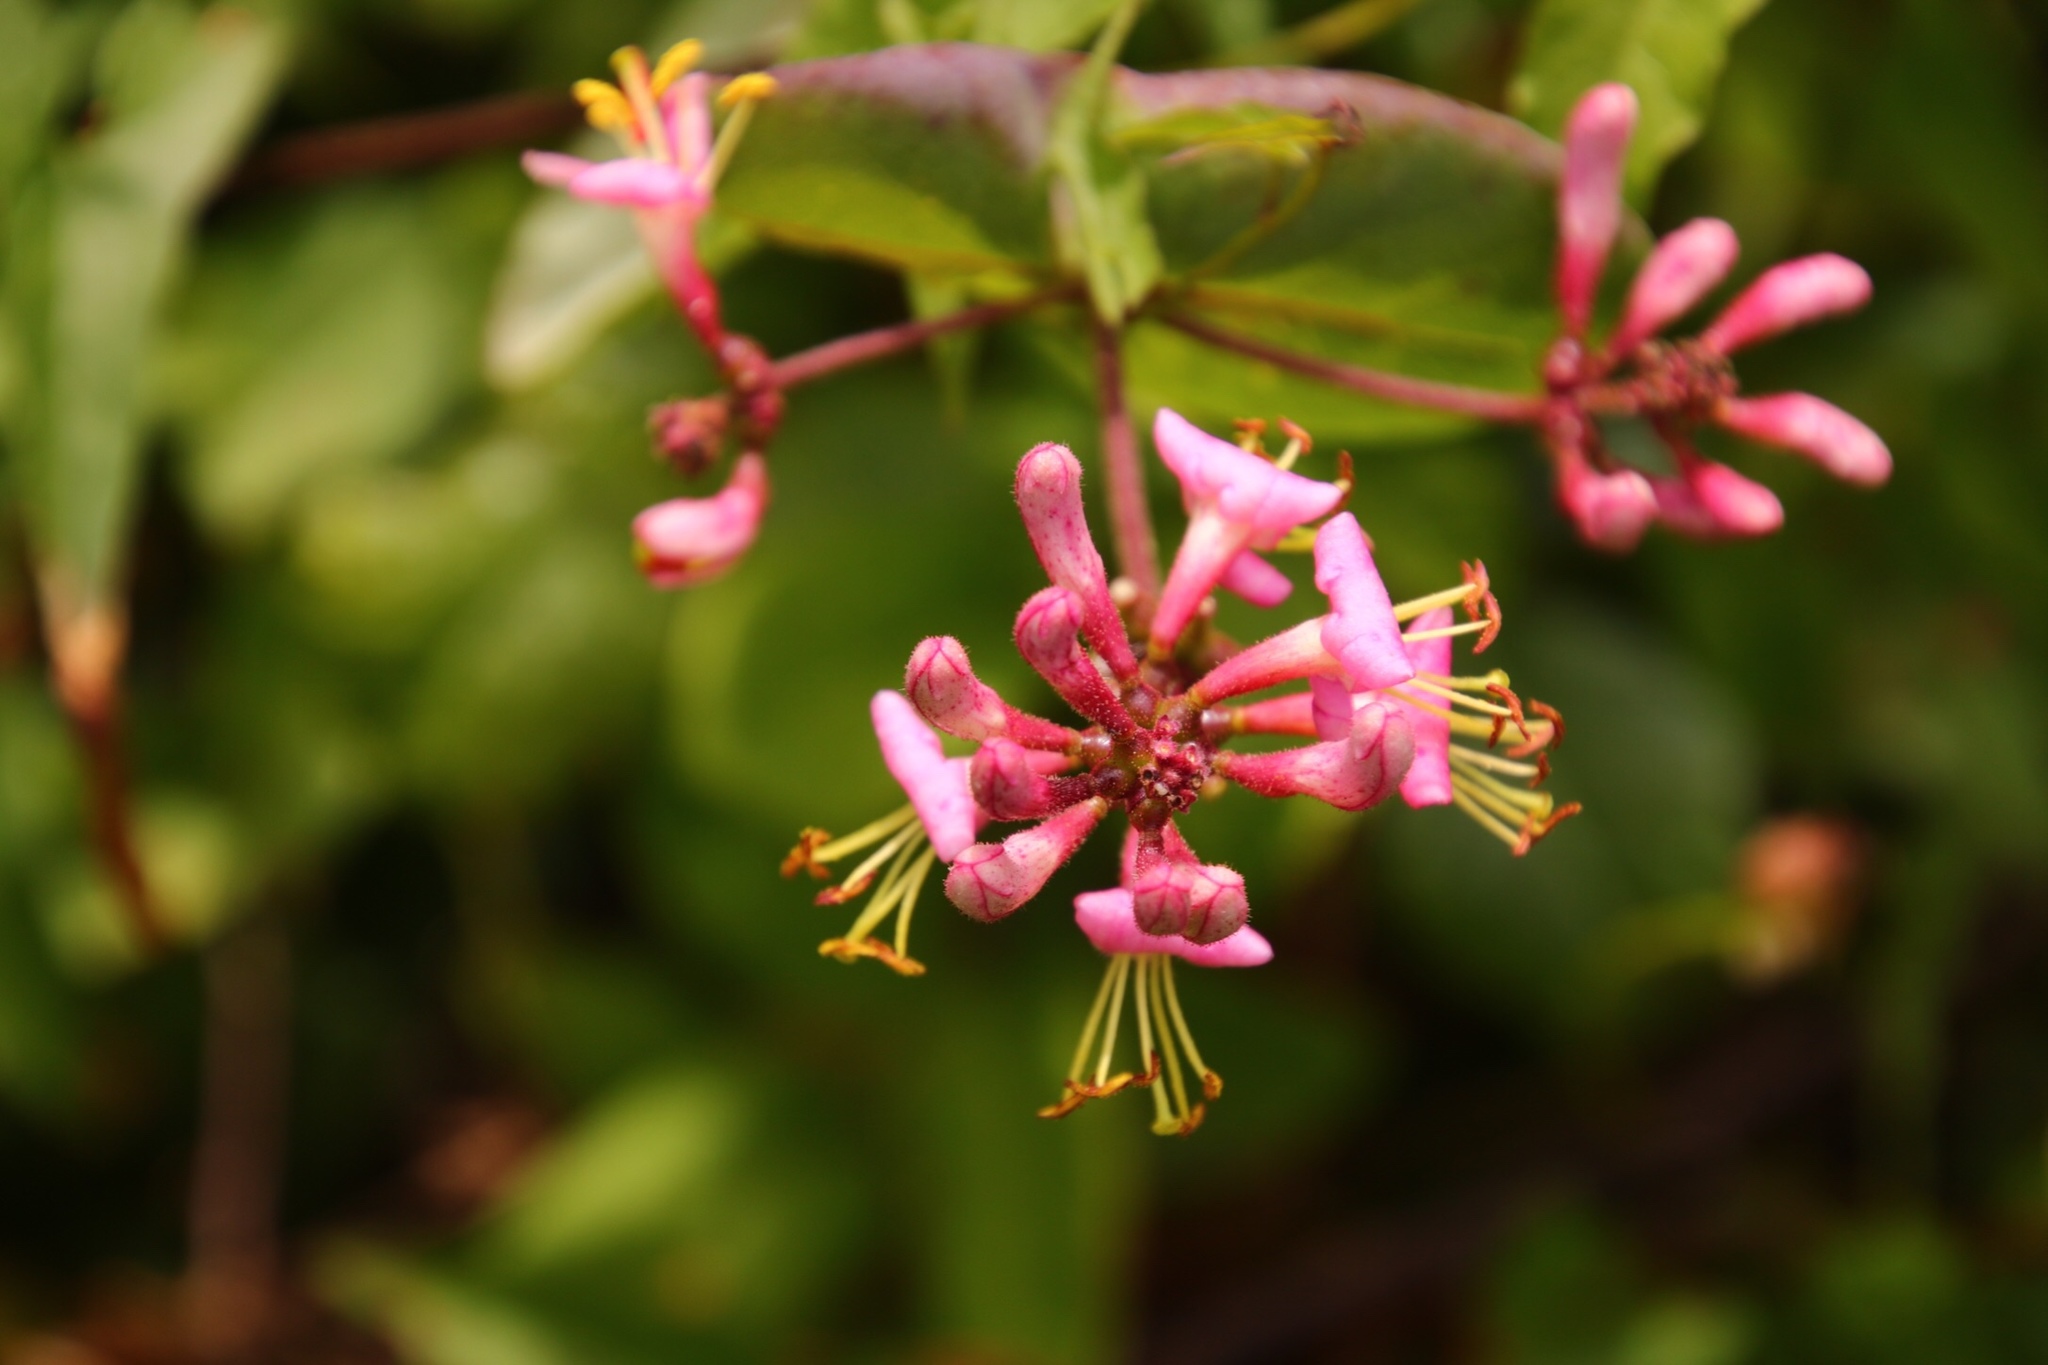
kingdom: Plantae
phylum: Tracheophyta
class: Magnoliopsida
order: Dipsacales
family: Caprifoliaceae
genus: Lonicera
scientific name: Lonicera hispidula
